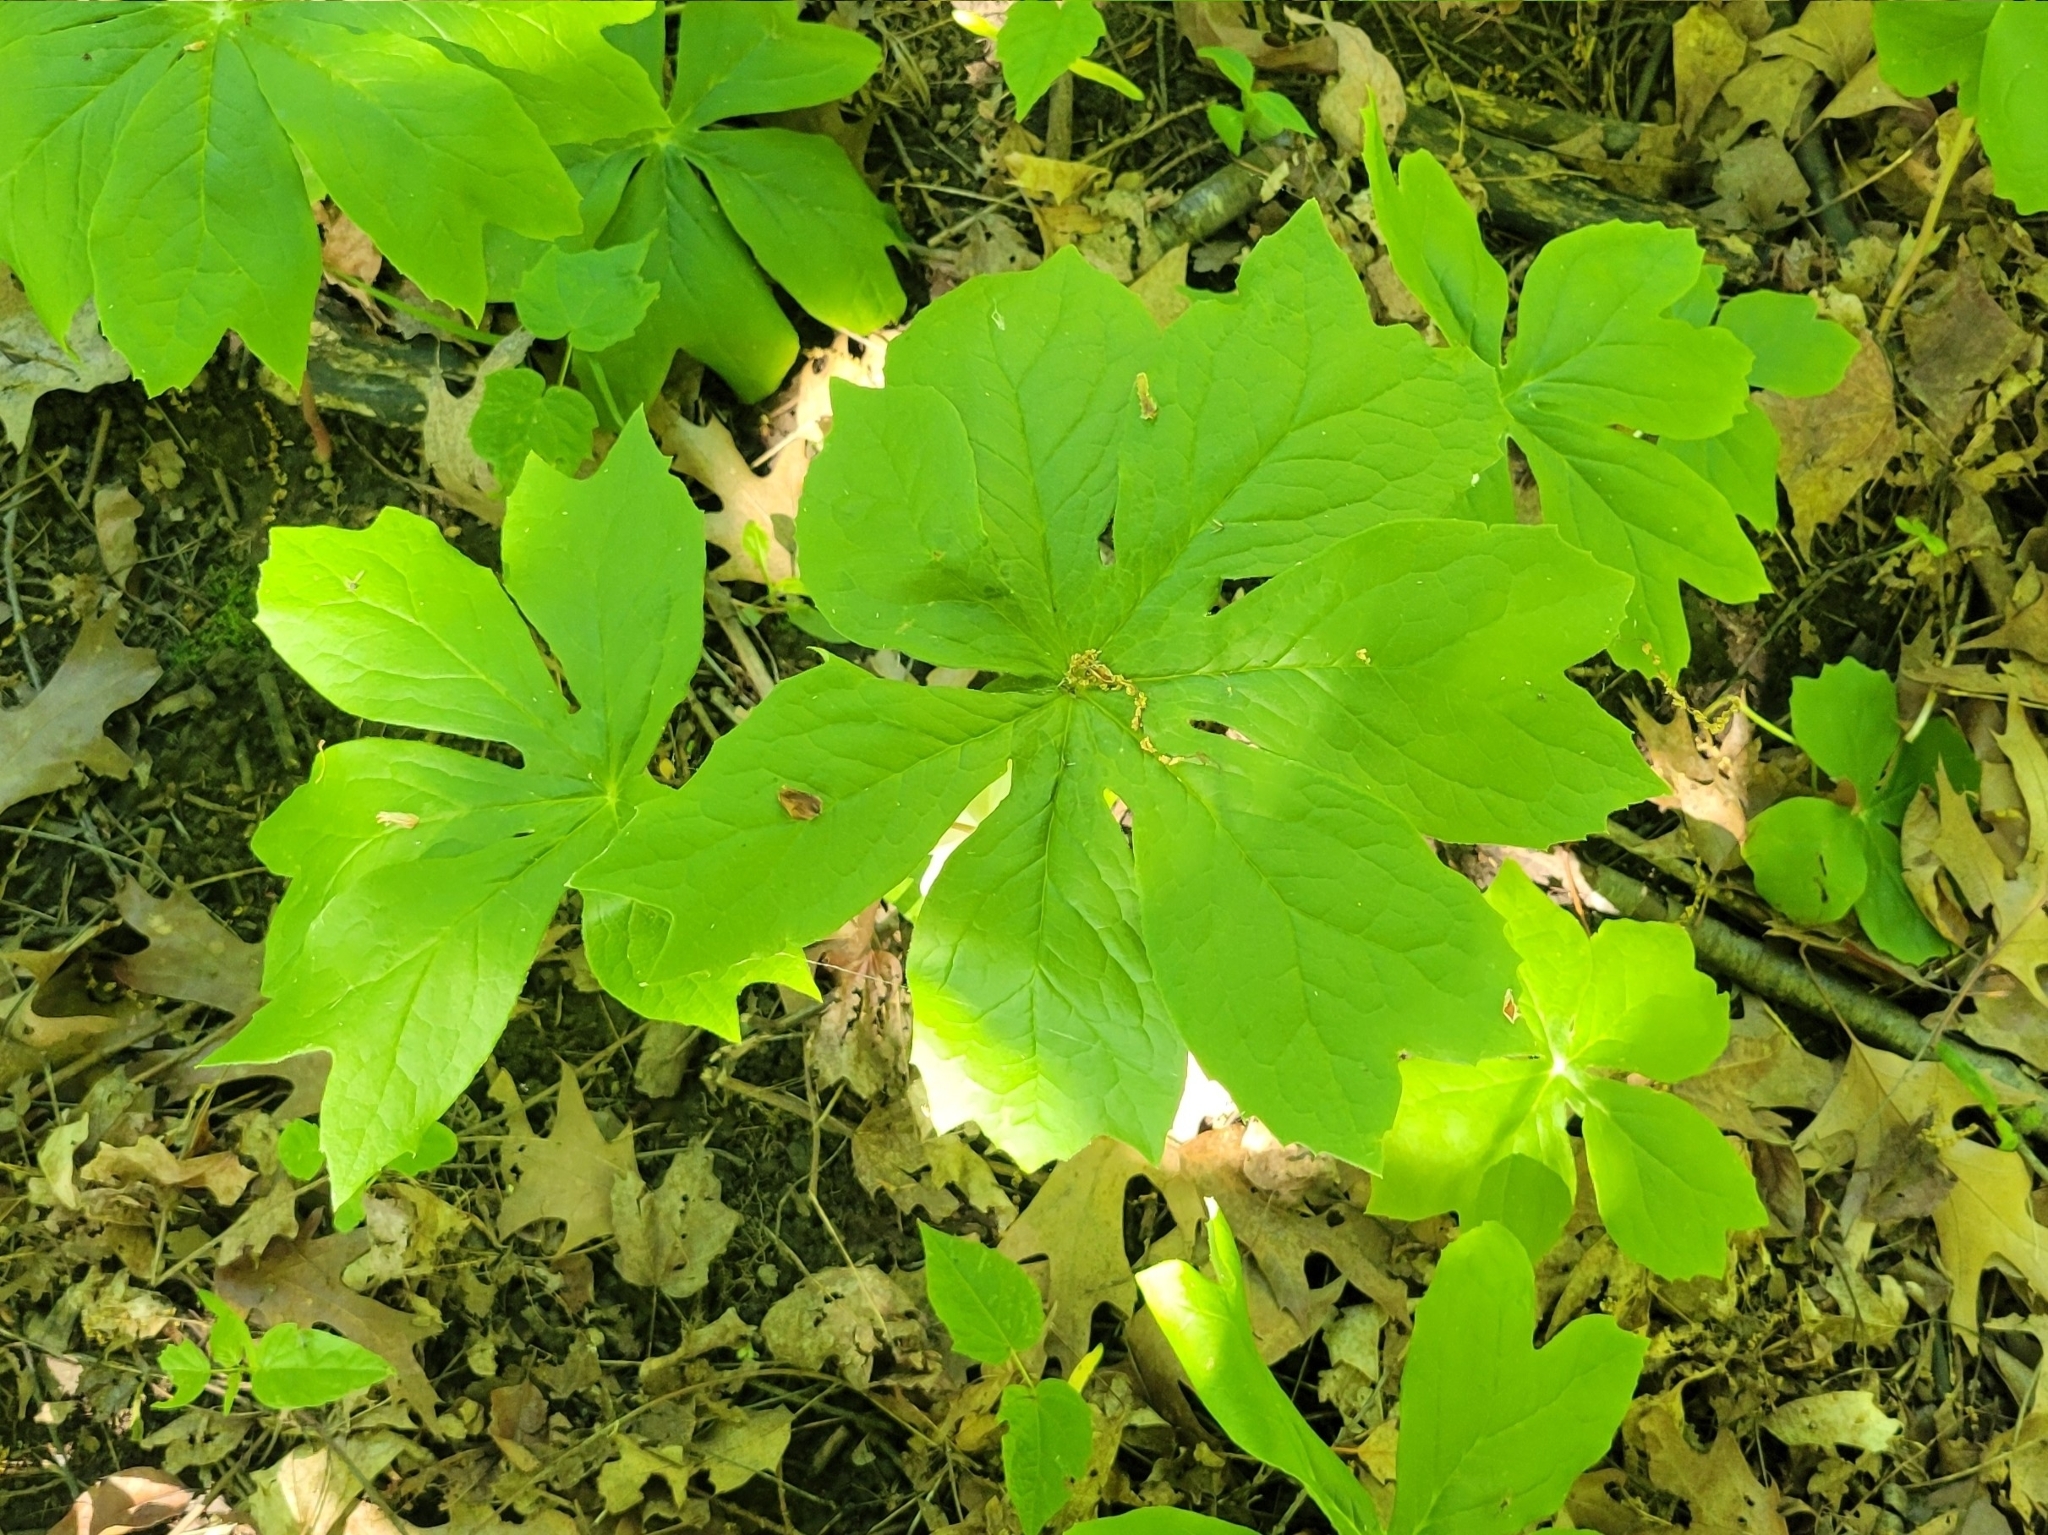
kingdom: Plantae
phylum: Tracheophyta
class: Magnoliopsida
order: Ranunculales
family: Berberidaceae
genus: Podophyllum
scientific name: Podophyllum peltatum
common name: Wild mandrake
